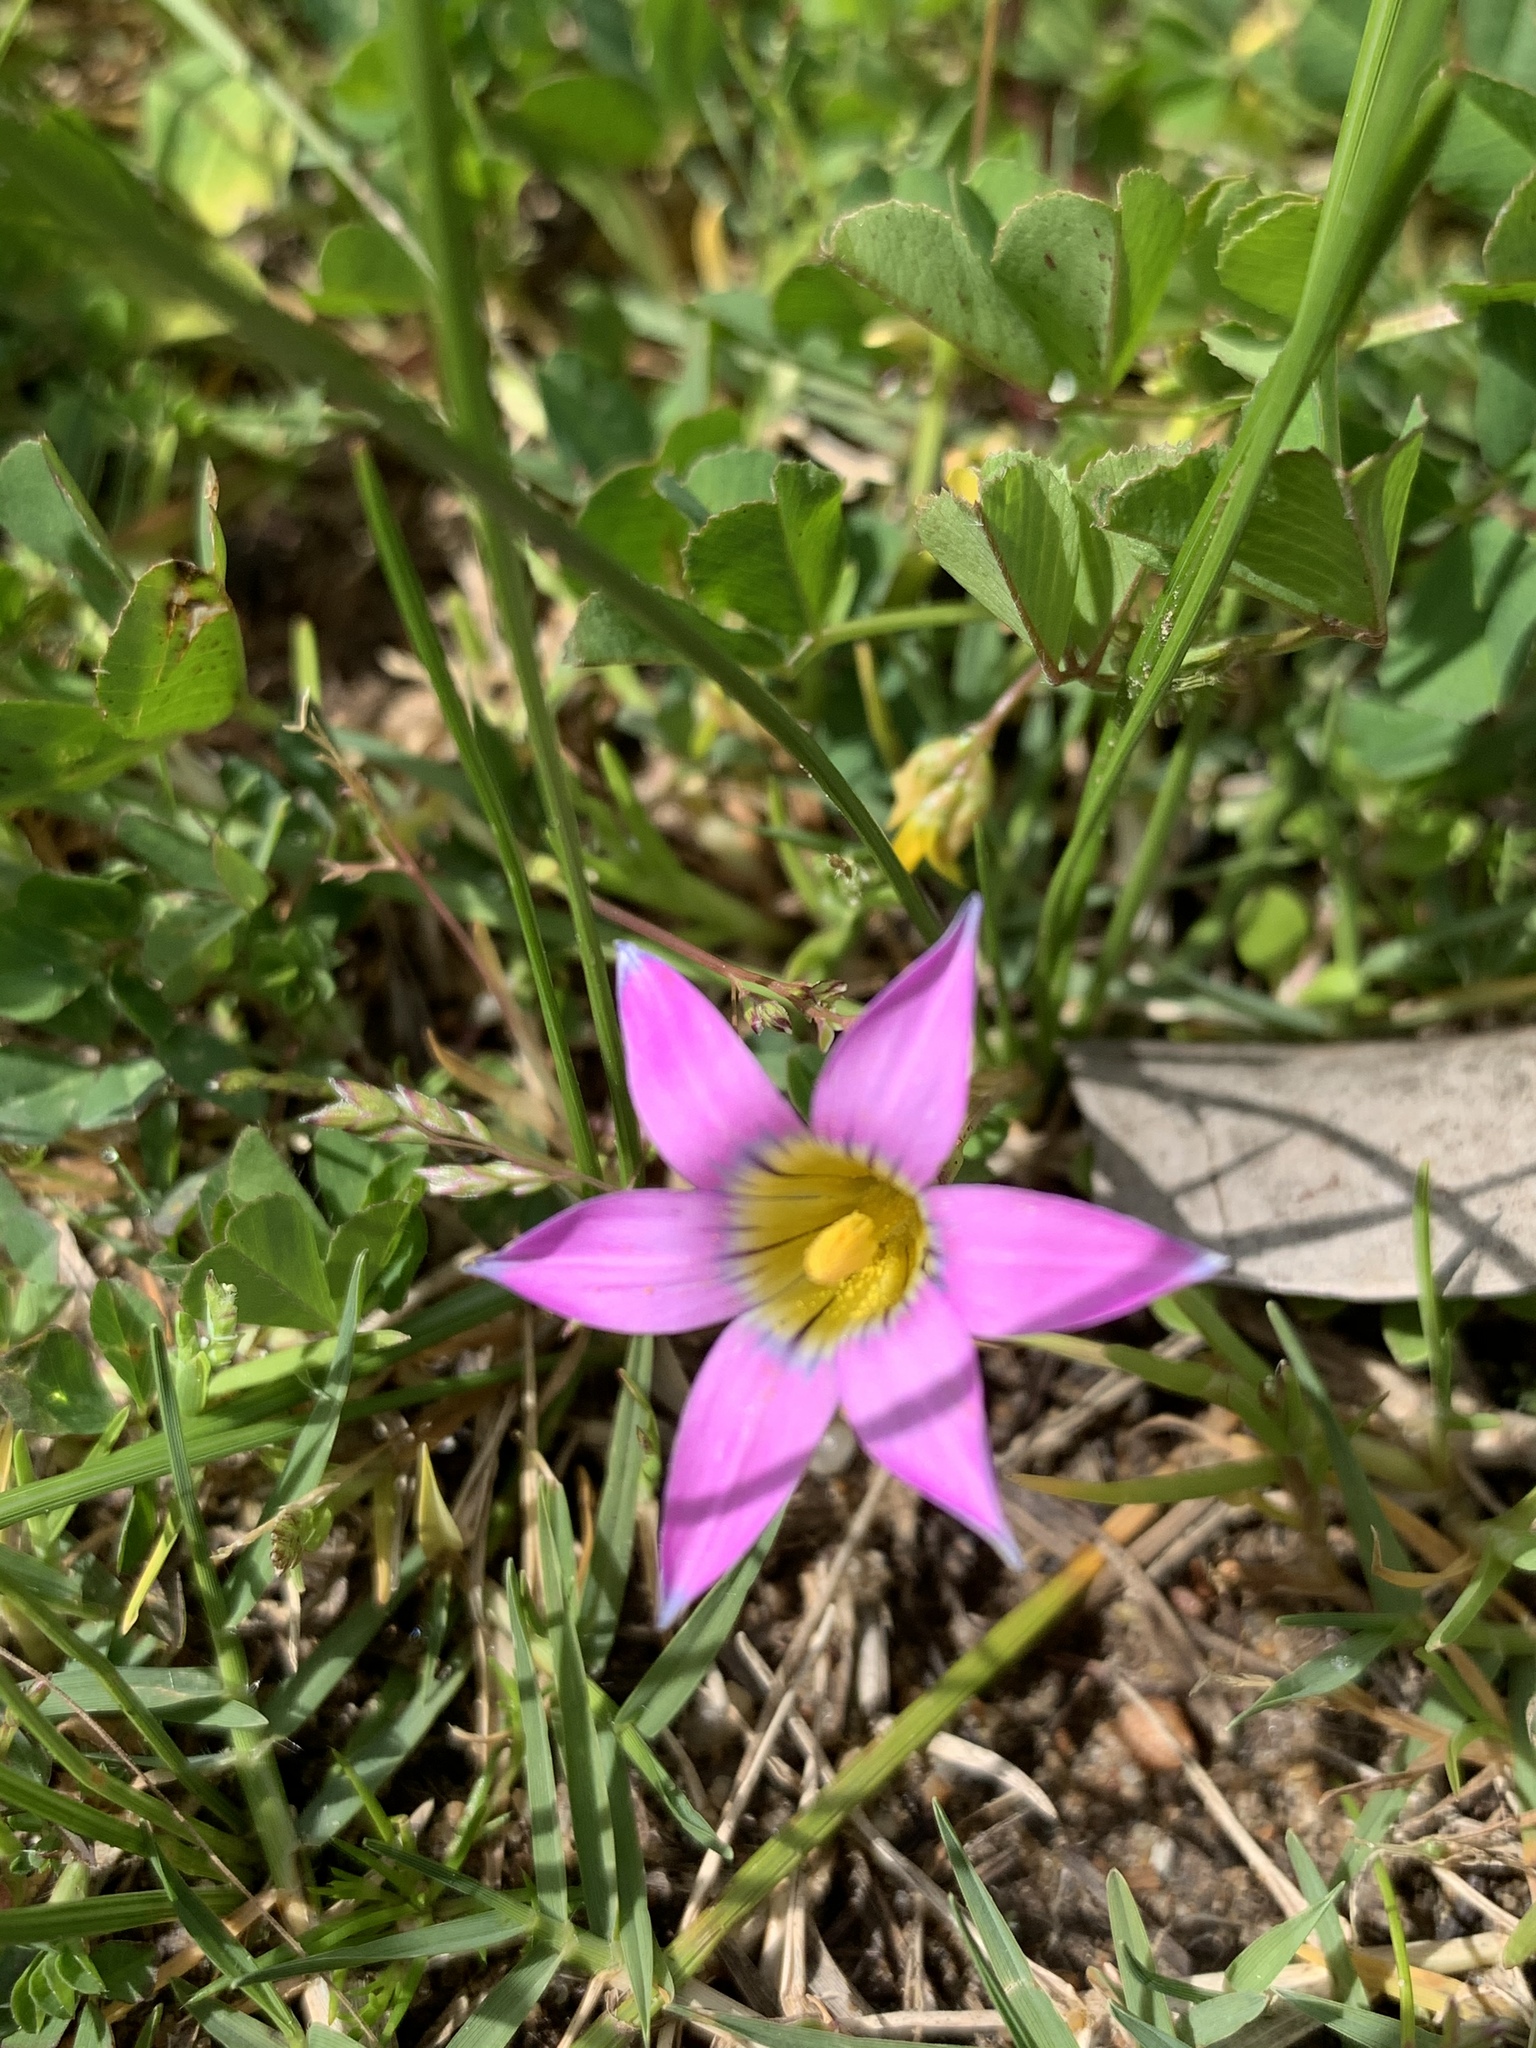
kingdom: Plantae
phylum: Tracheophyta
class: Liliopsida
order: Asparagales
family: Iridaceae
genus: Romulea
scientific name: Romulea rosea
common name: Oniongrass
